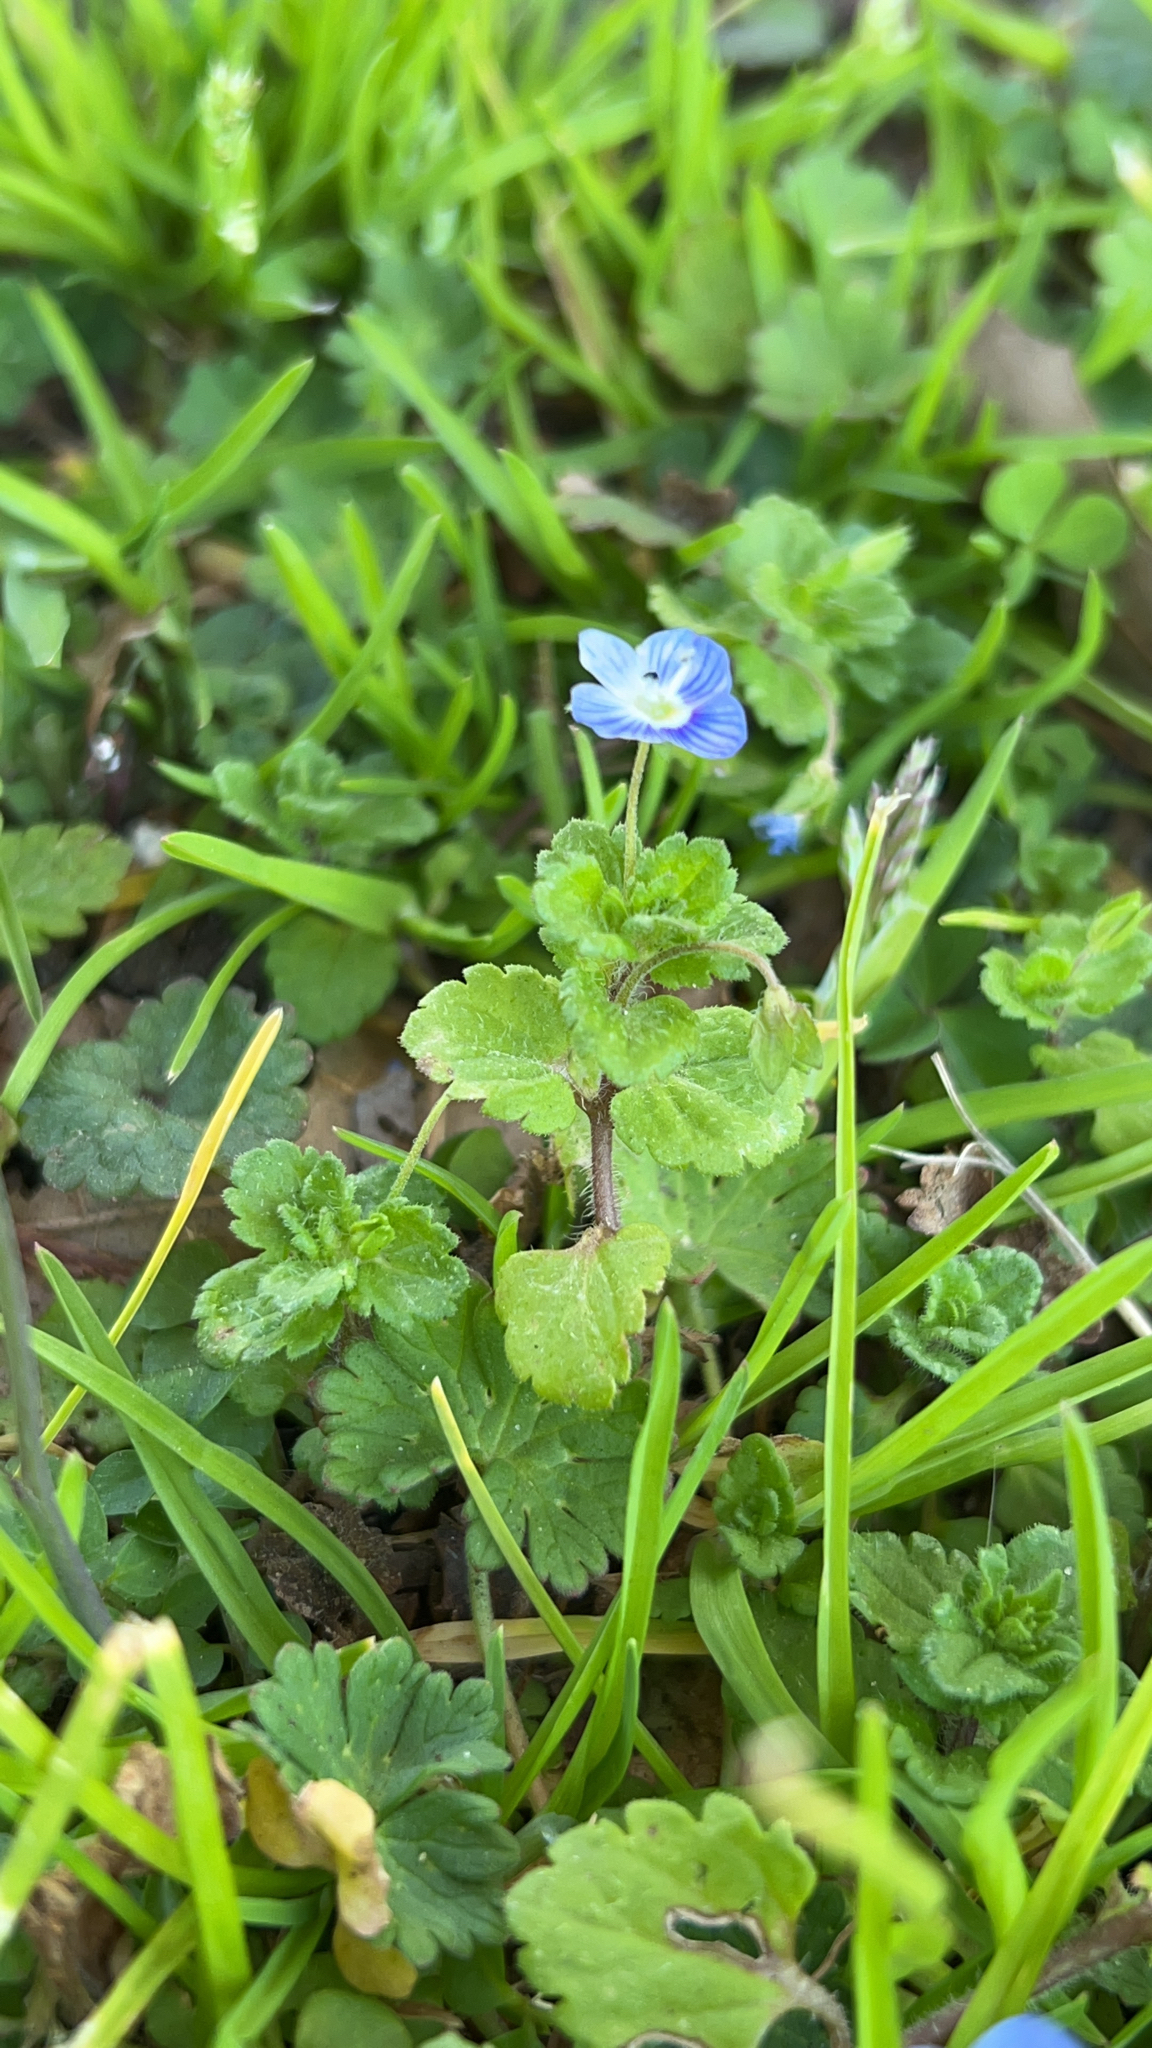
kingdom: Plantae
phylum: Tracheophyta
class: Magnoliopsida
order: Lamiales
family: Plantaginaceae
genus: Veronica
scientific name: Veronica persica
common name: Common field-speedwell
